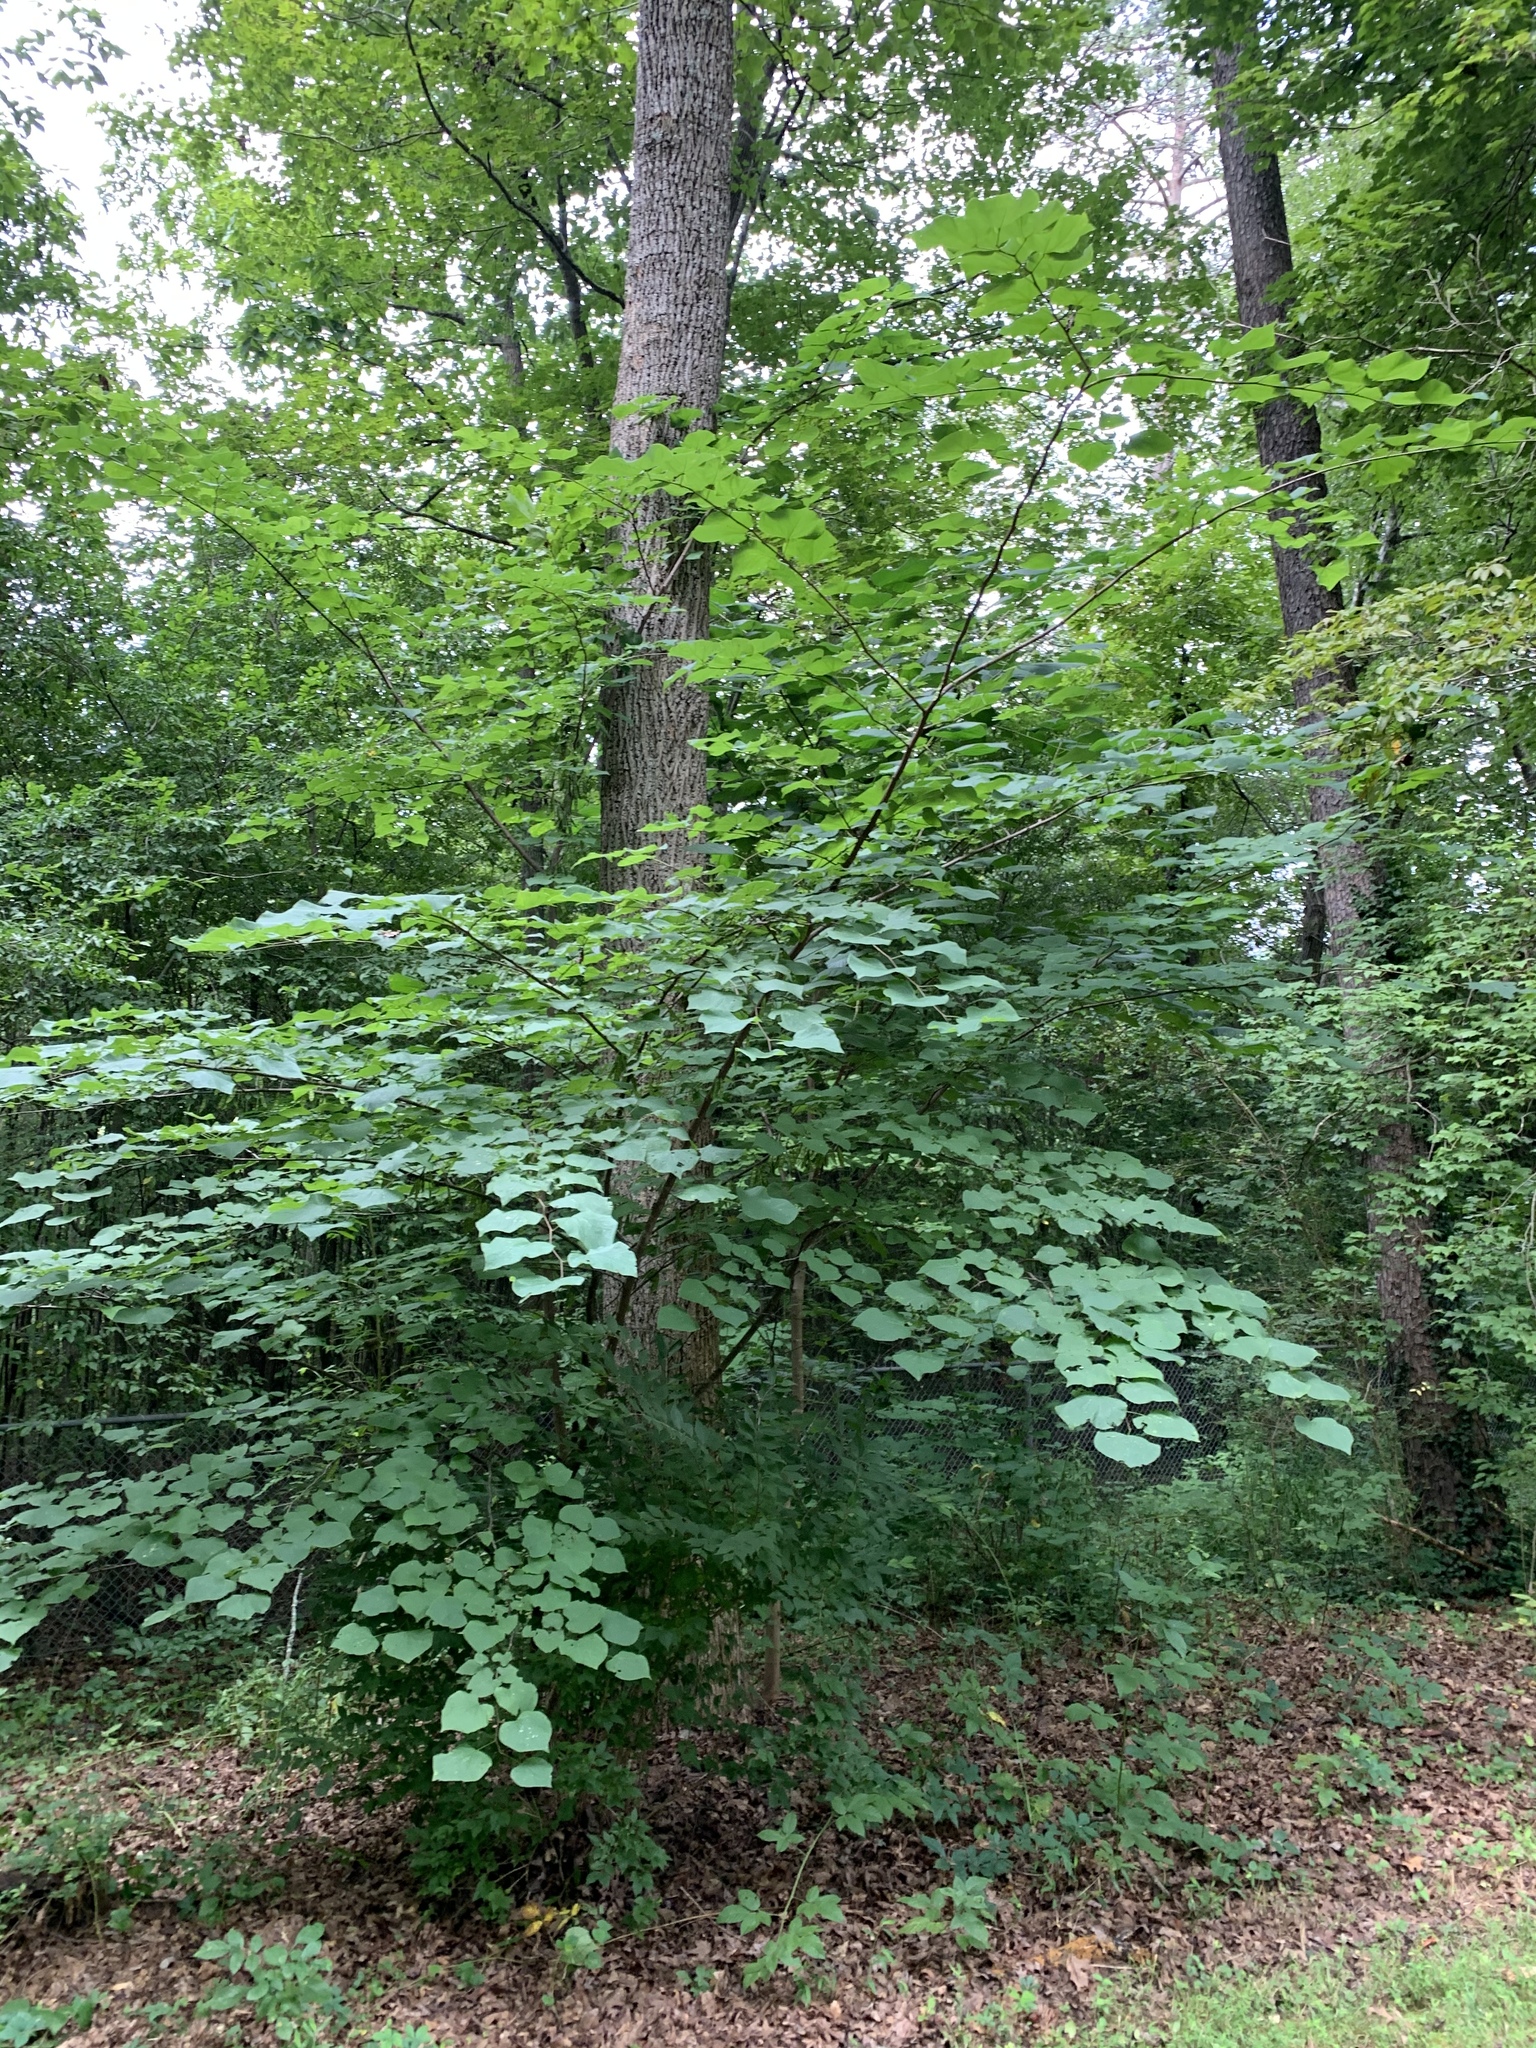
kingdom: Plantae
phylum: Tracheophyta
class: Magnoliopsida
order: Fabales
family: Fabaceae
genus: Cercis
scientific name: Cercis canadensis
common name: Eastern redbud
